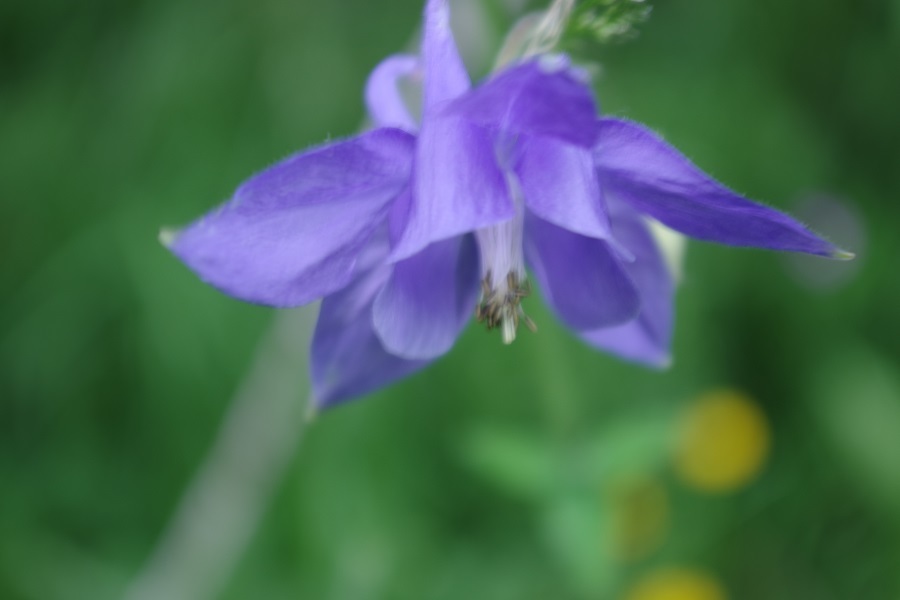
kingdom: Plantae
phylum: Tracheophyta
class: Magnoliopsida
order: Ranunculales
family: Ranunculaceae
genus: Aquilegia
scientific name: Aquilegia vulgaris
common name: Columbine
